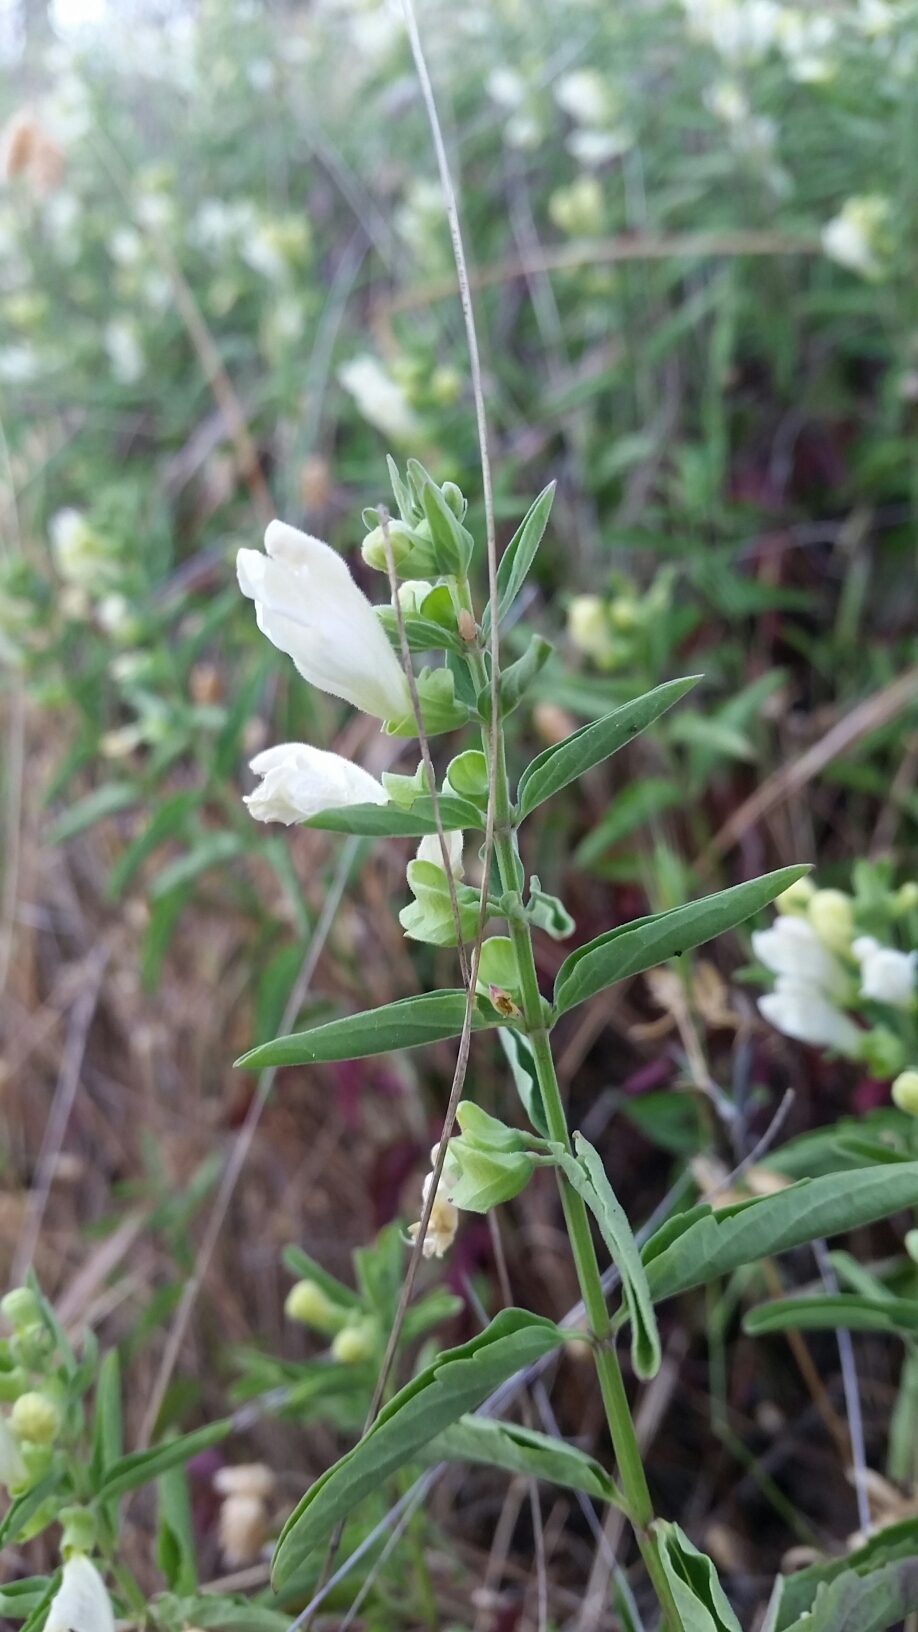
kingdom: Plantae
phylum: Tracheophyta
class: Magnoliopsida
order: Lamiales
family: Lamiaceae
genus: Scutellaria
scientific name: Scutellaria californica
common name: California scullcap
